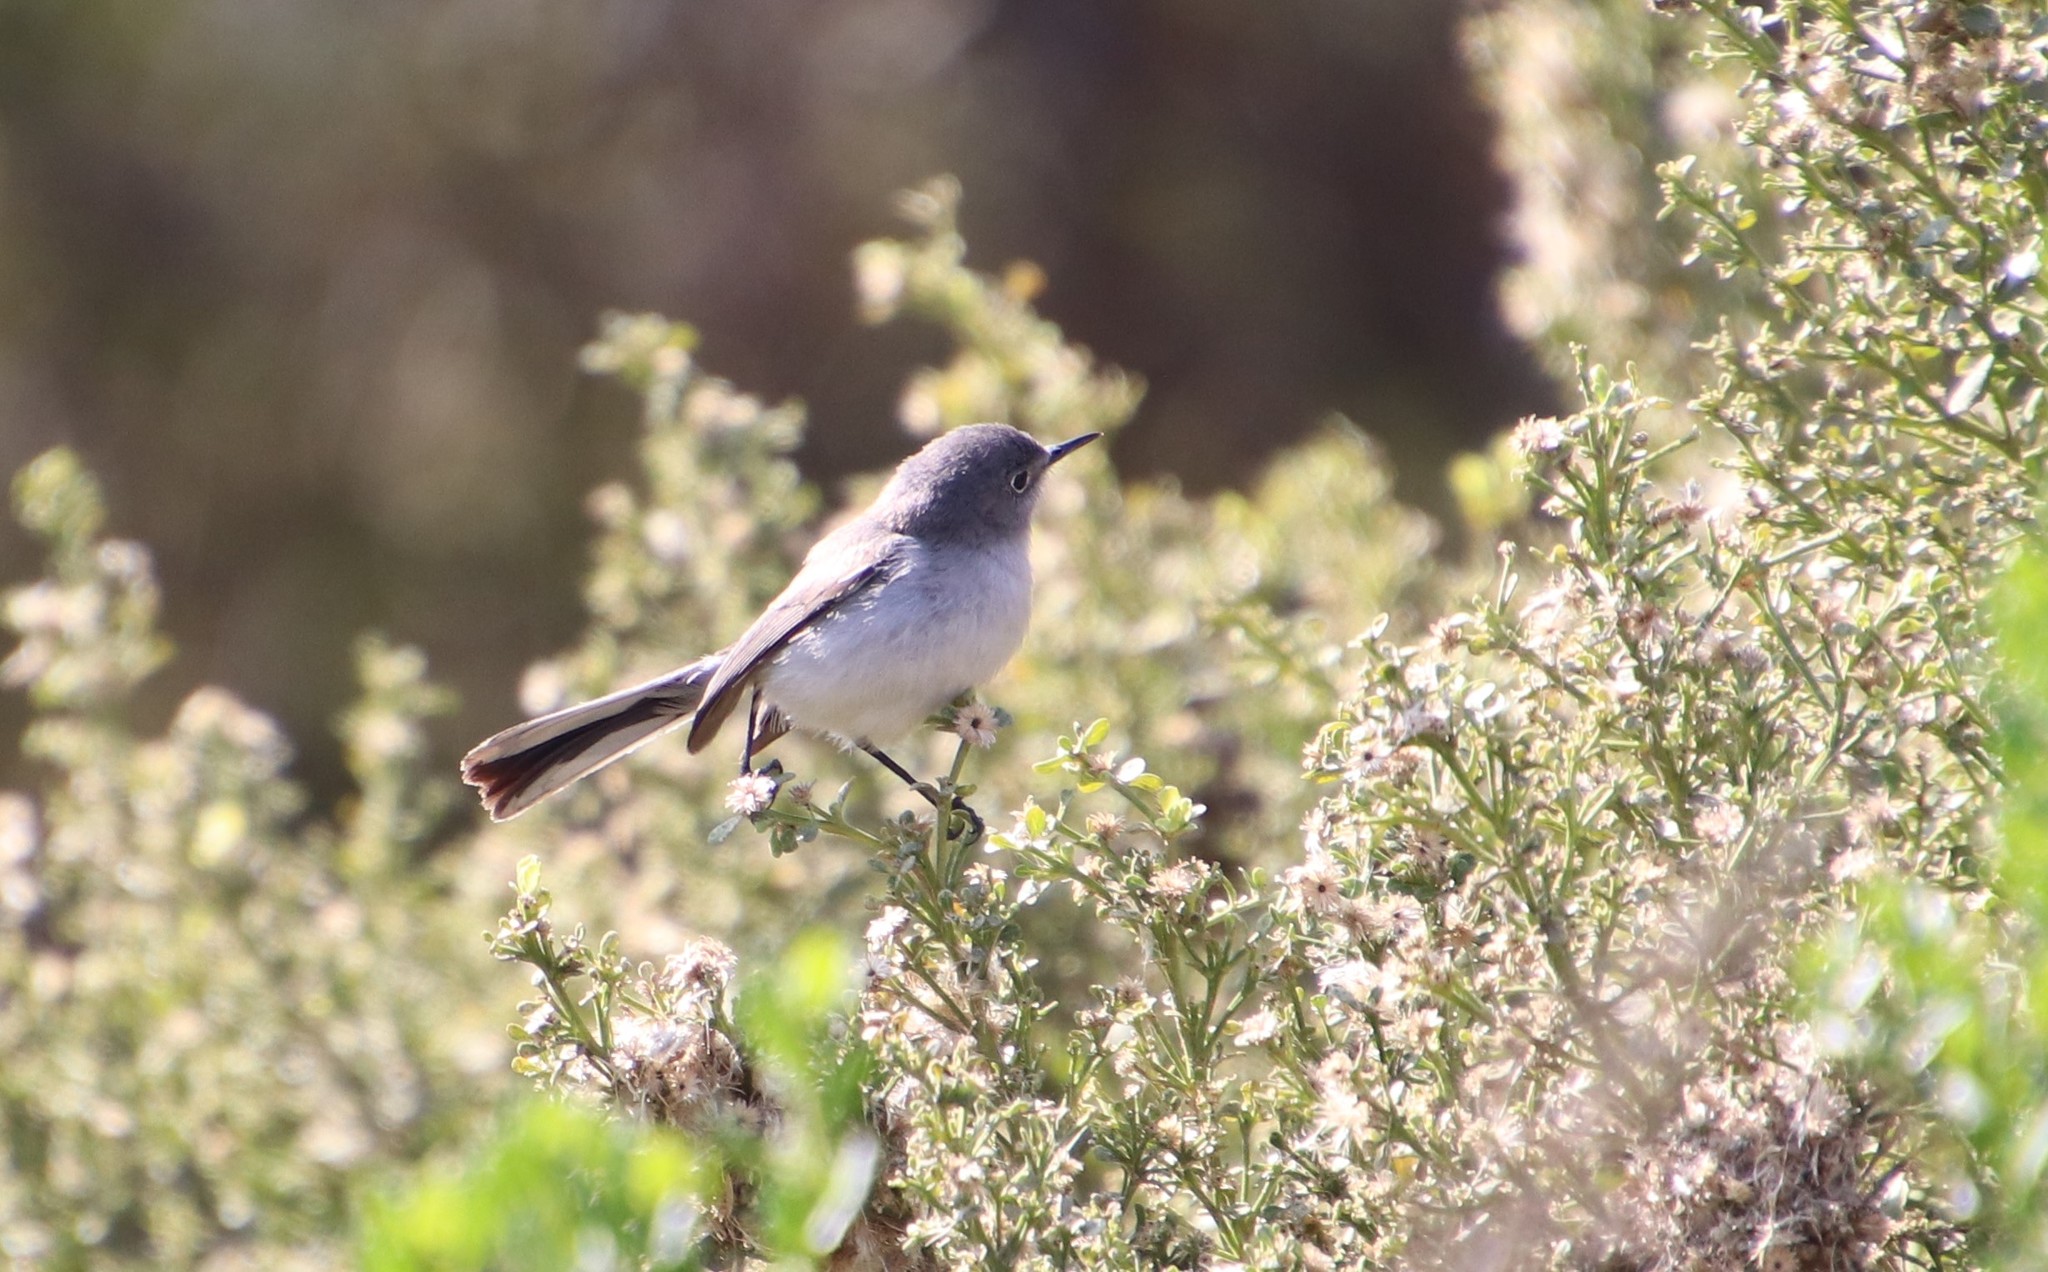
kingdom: Animalia
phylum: Chordata
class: Aves
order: Passeriformes
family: Polioptilidae
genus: Polioptila
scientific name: Polioptila caerulea
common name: Blue-gray gnatcatcher
